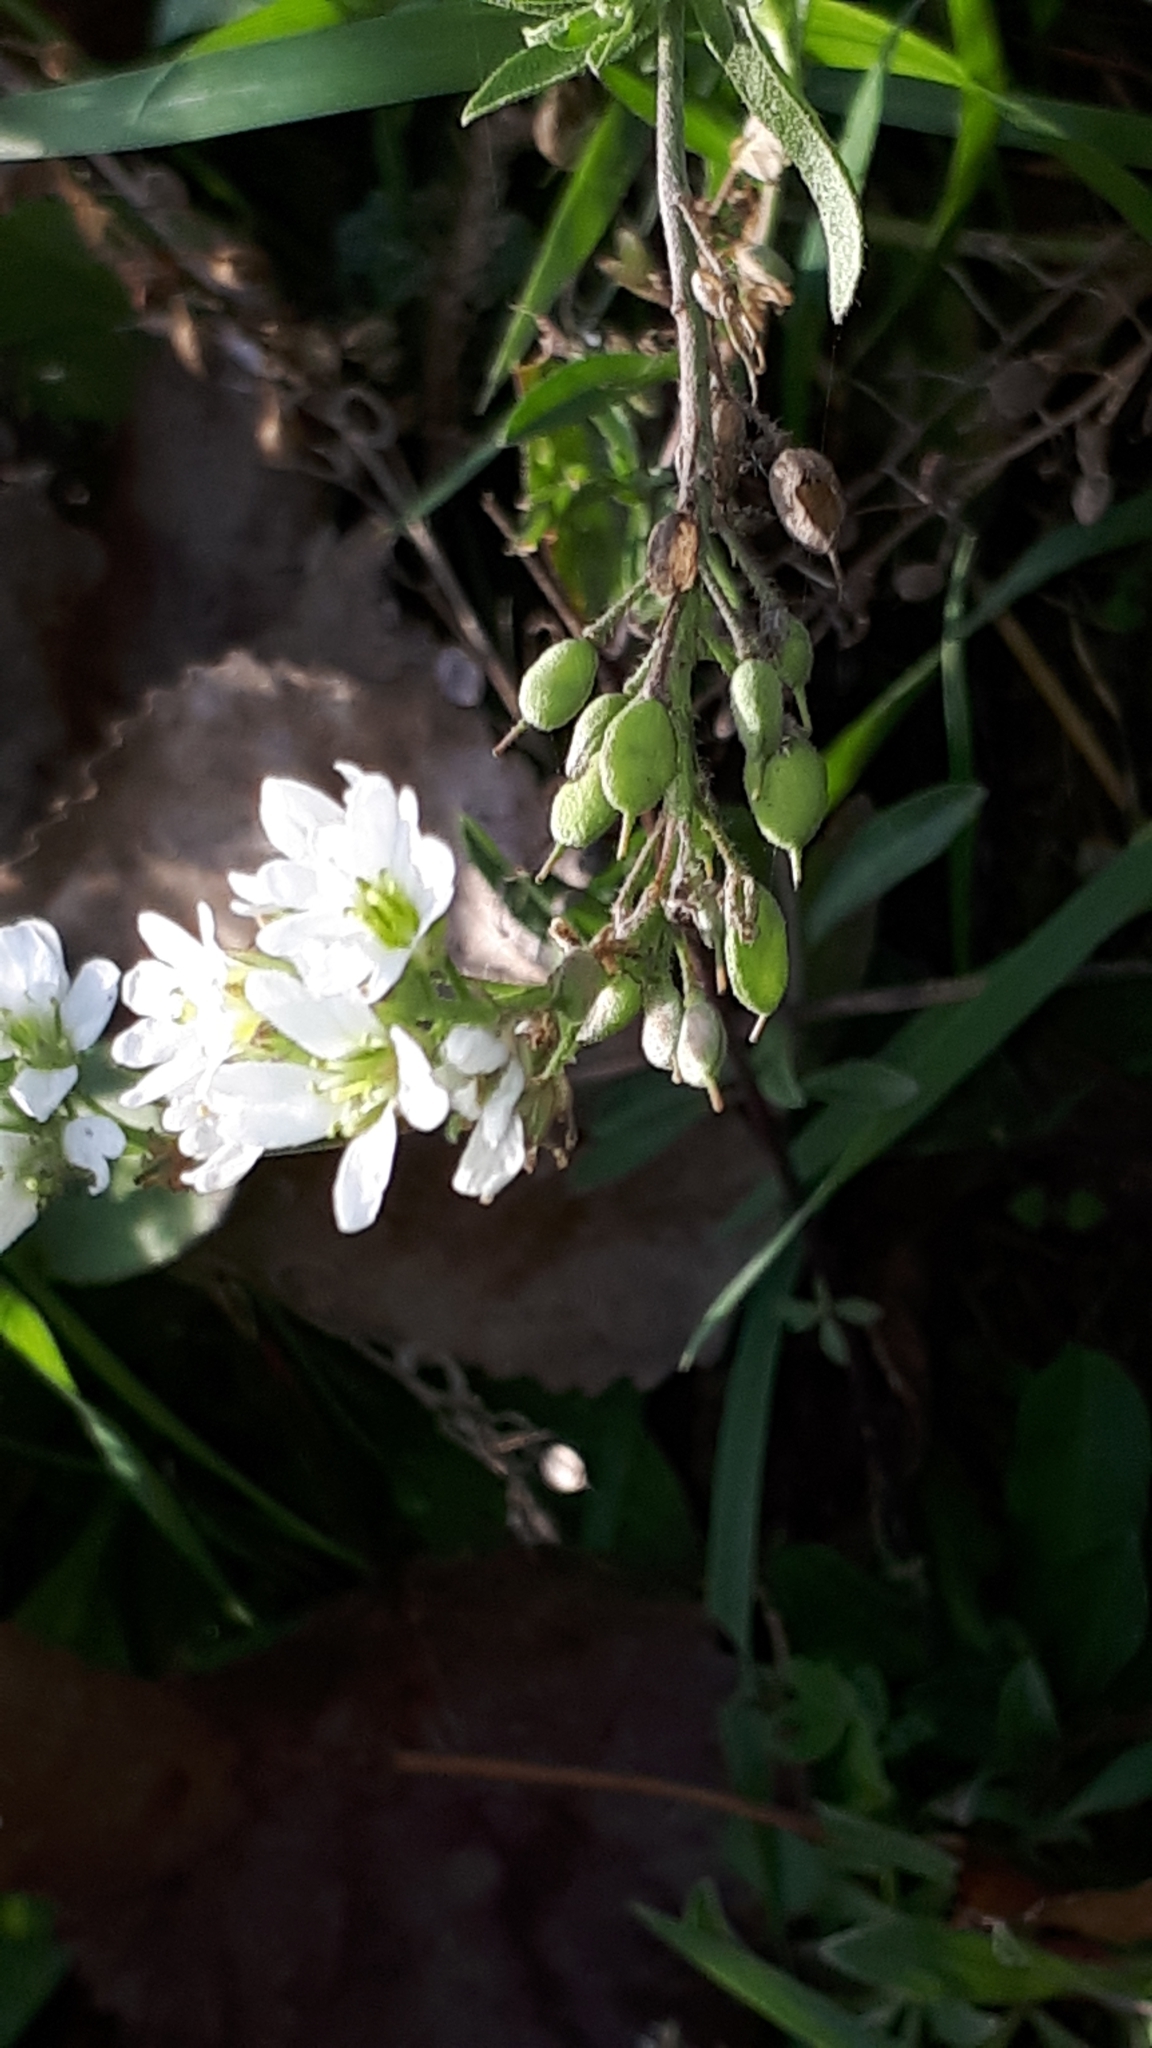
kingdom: Plantae
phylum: Tracheophyta
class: Magnoliopsida
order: Brassicales
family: Brassicaceae
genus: Berteroa
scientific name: Berteroa incana
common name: Hoary alison
